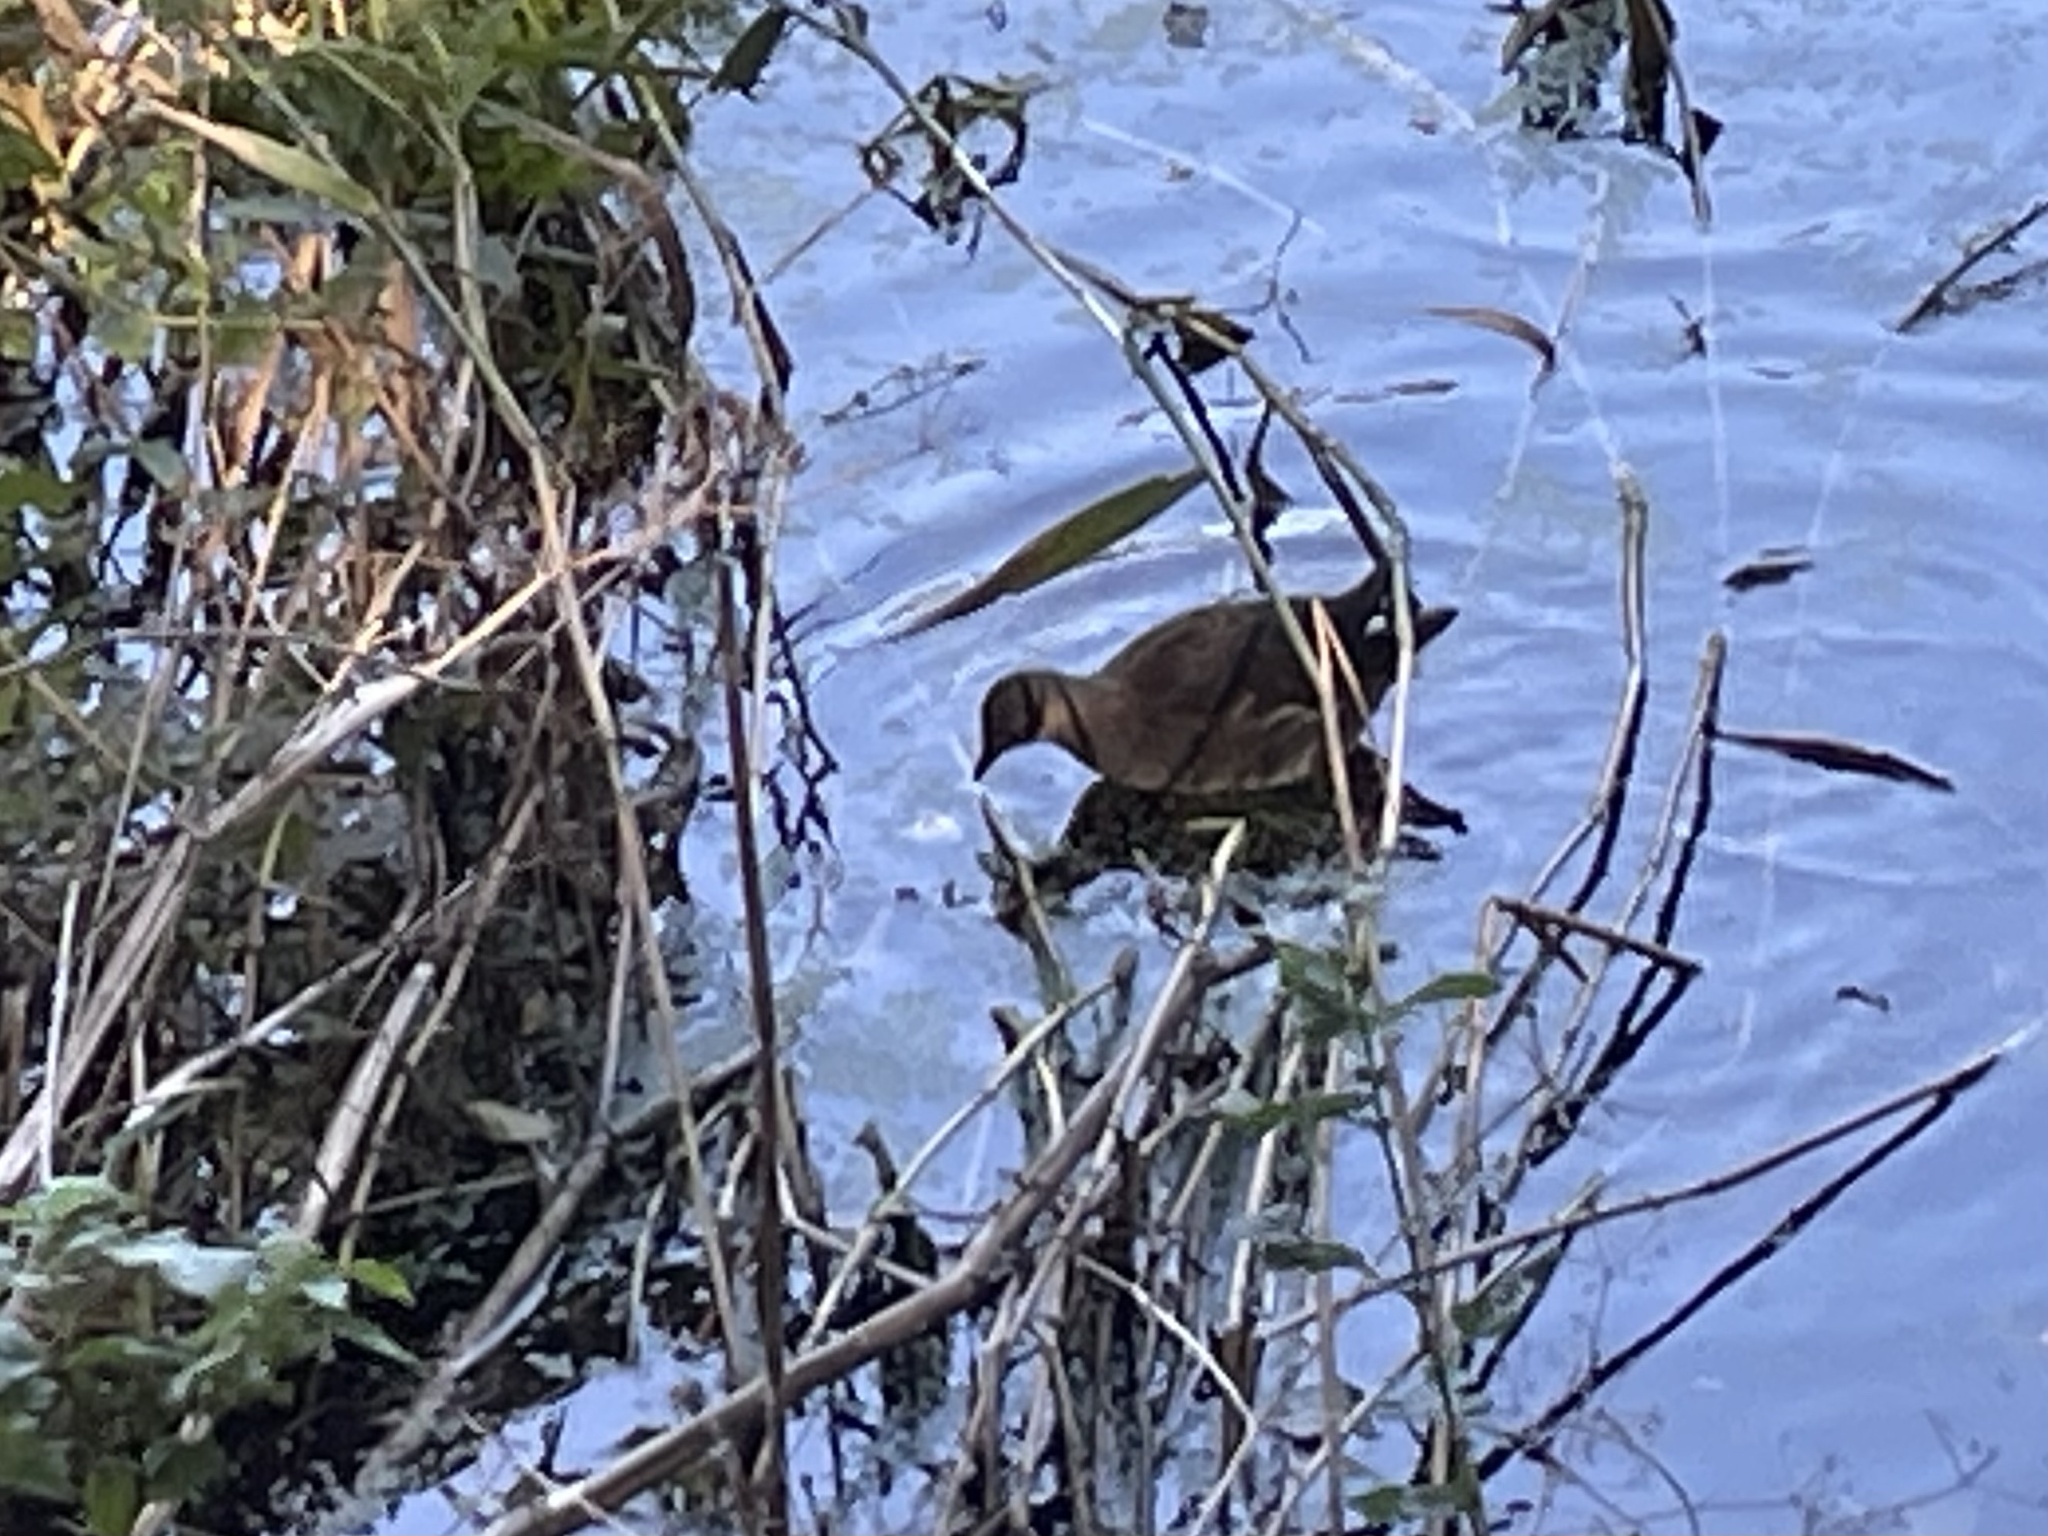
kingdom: Animalia
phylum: Chordata
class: Aves
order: Gruiformes
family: Rallidae
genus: Gallinula
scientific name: Gallinula chloropus
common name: Common moorhen
